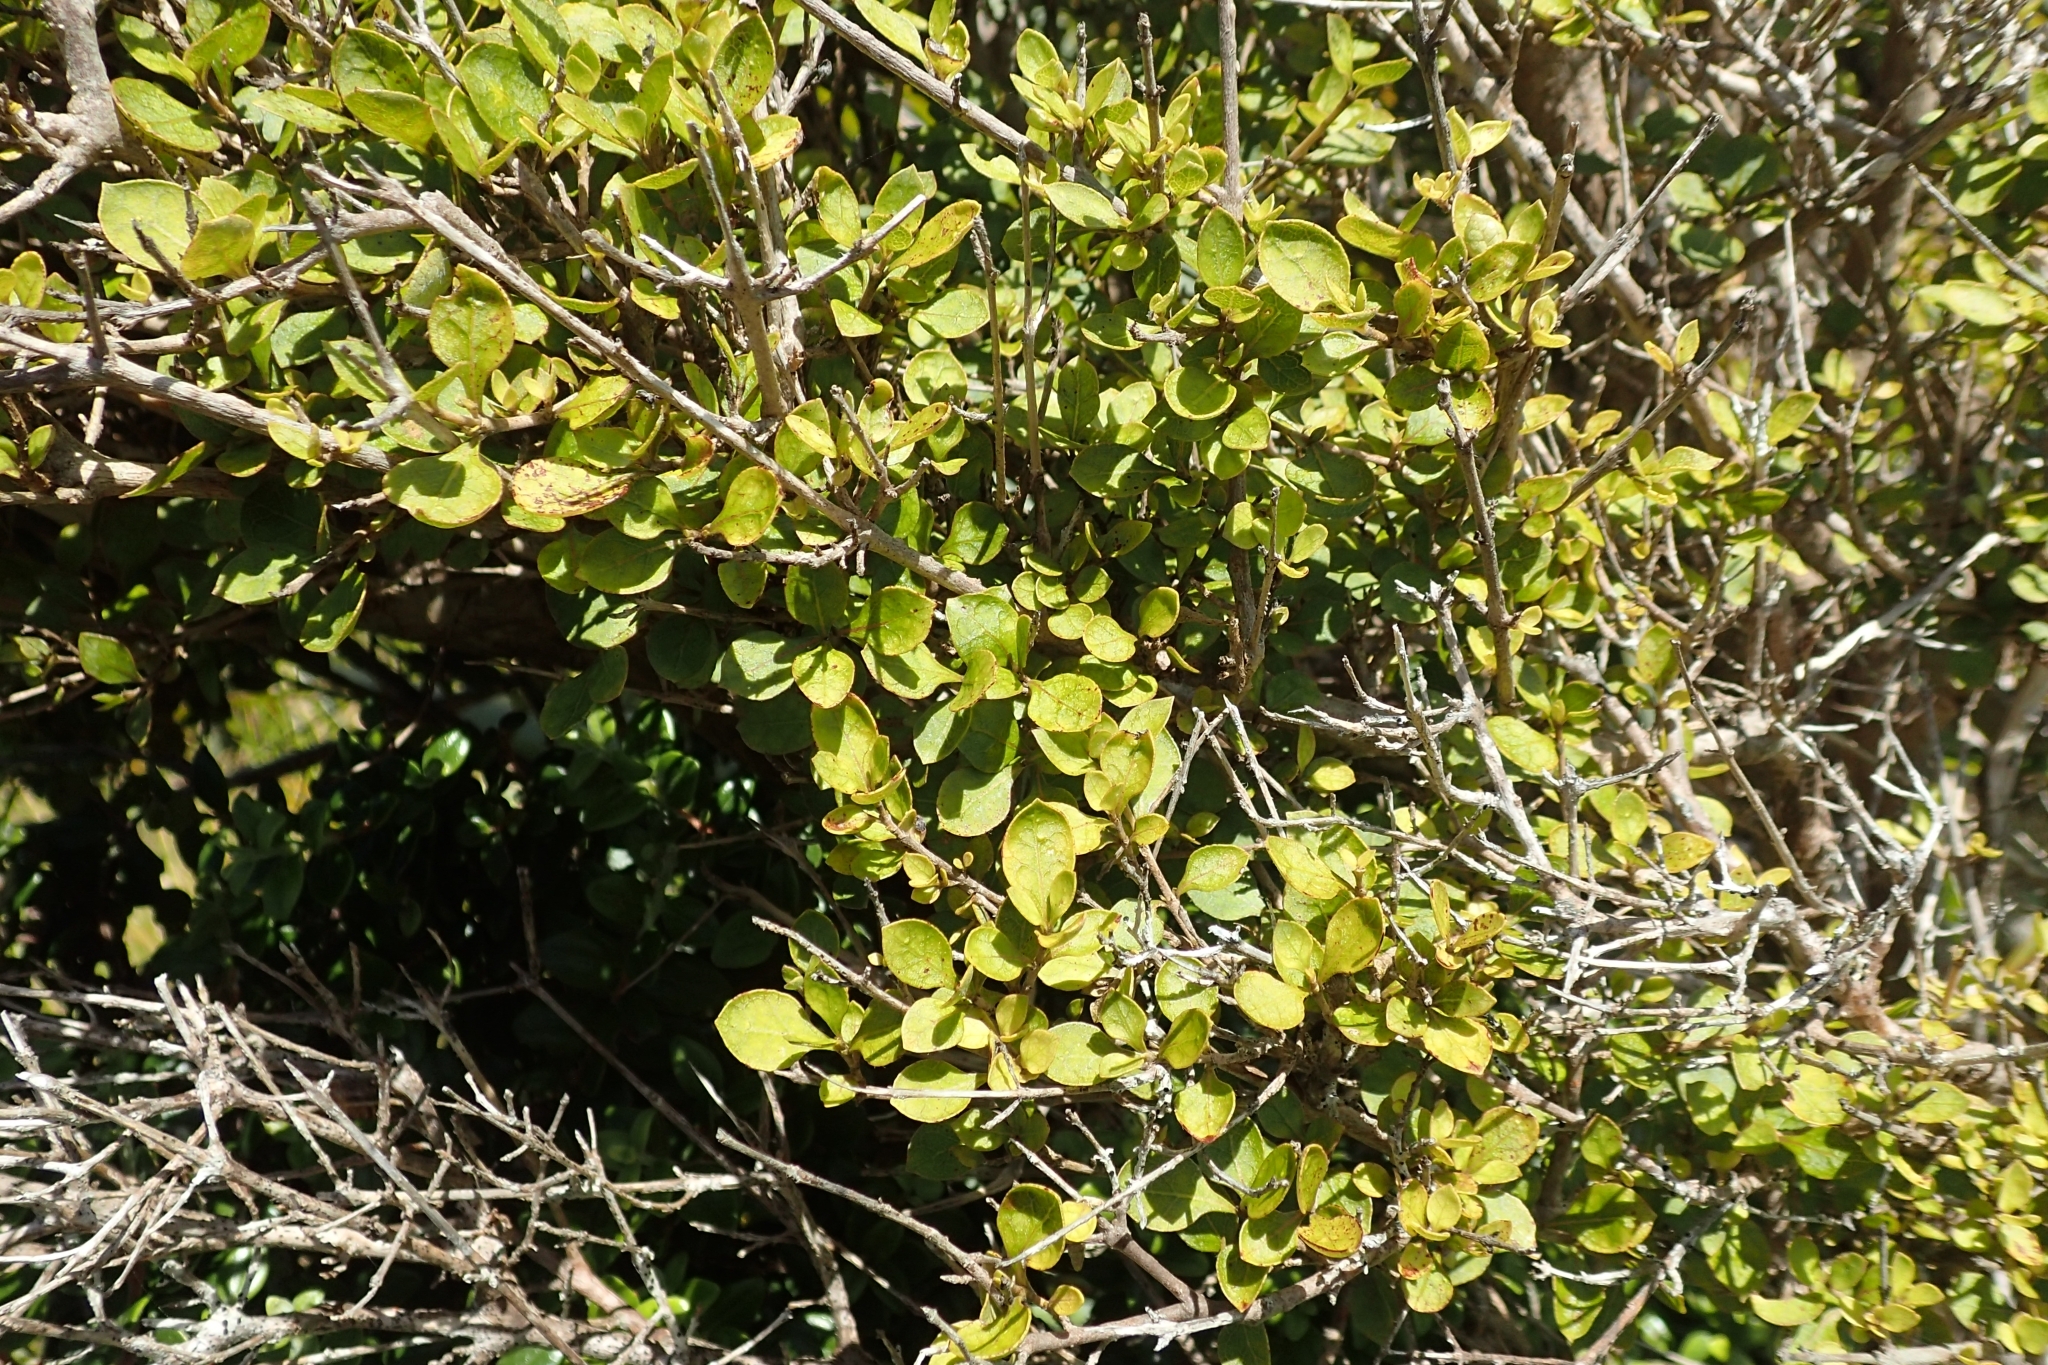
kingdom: Plantae
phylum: Tracheophyta
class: Magnoliopsida
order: Gentianales
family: Rubiaceae
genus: Coprosma
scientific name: Coprosma tenuicaulis
